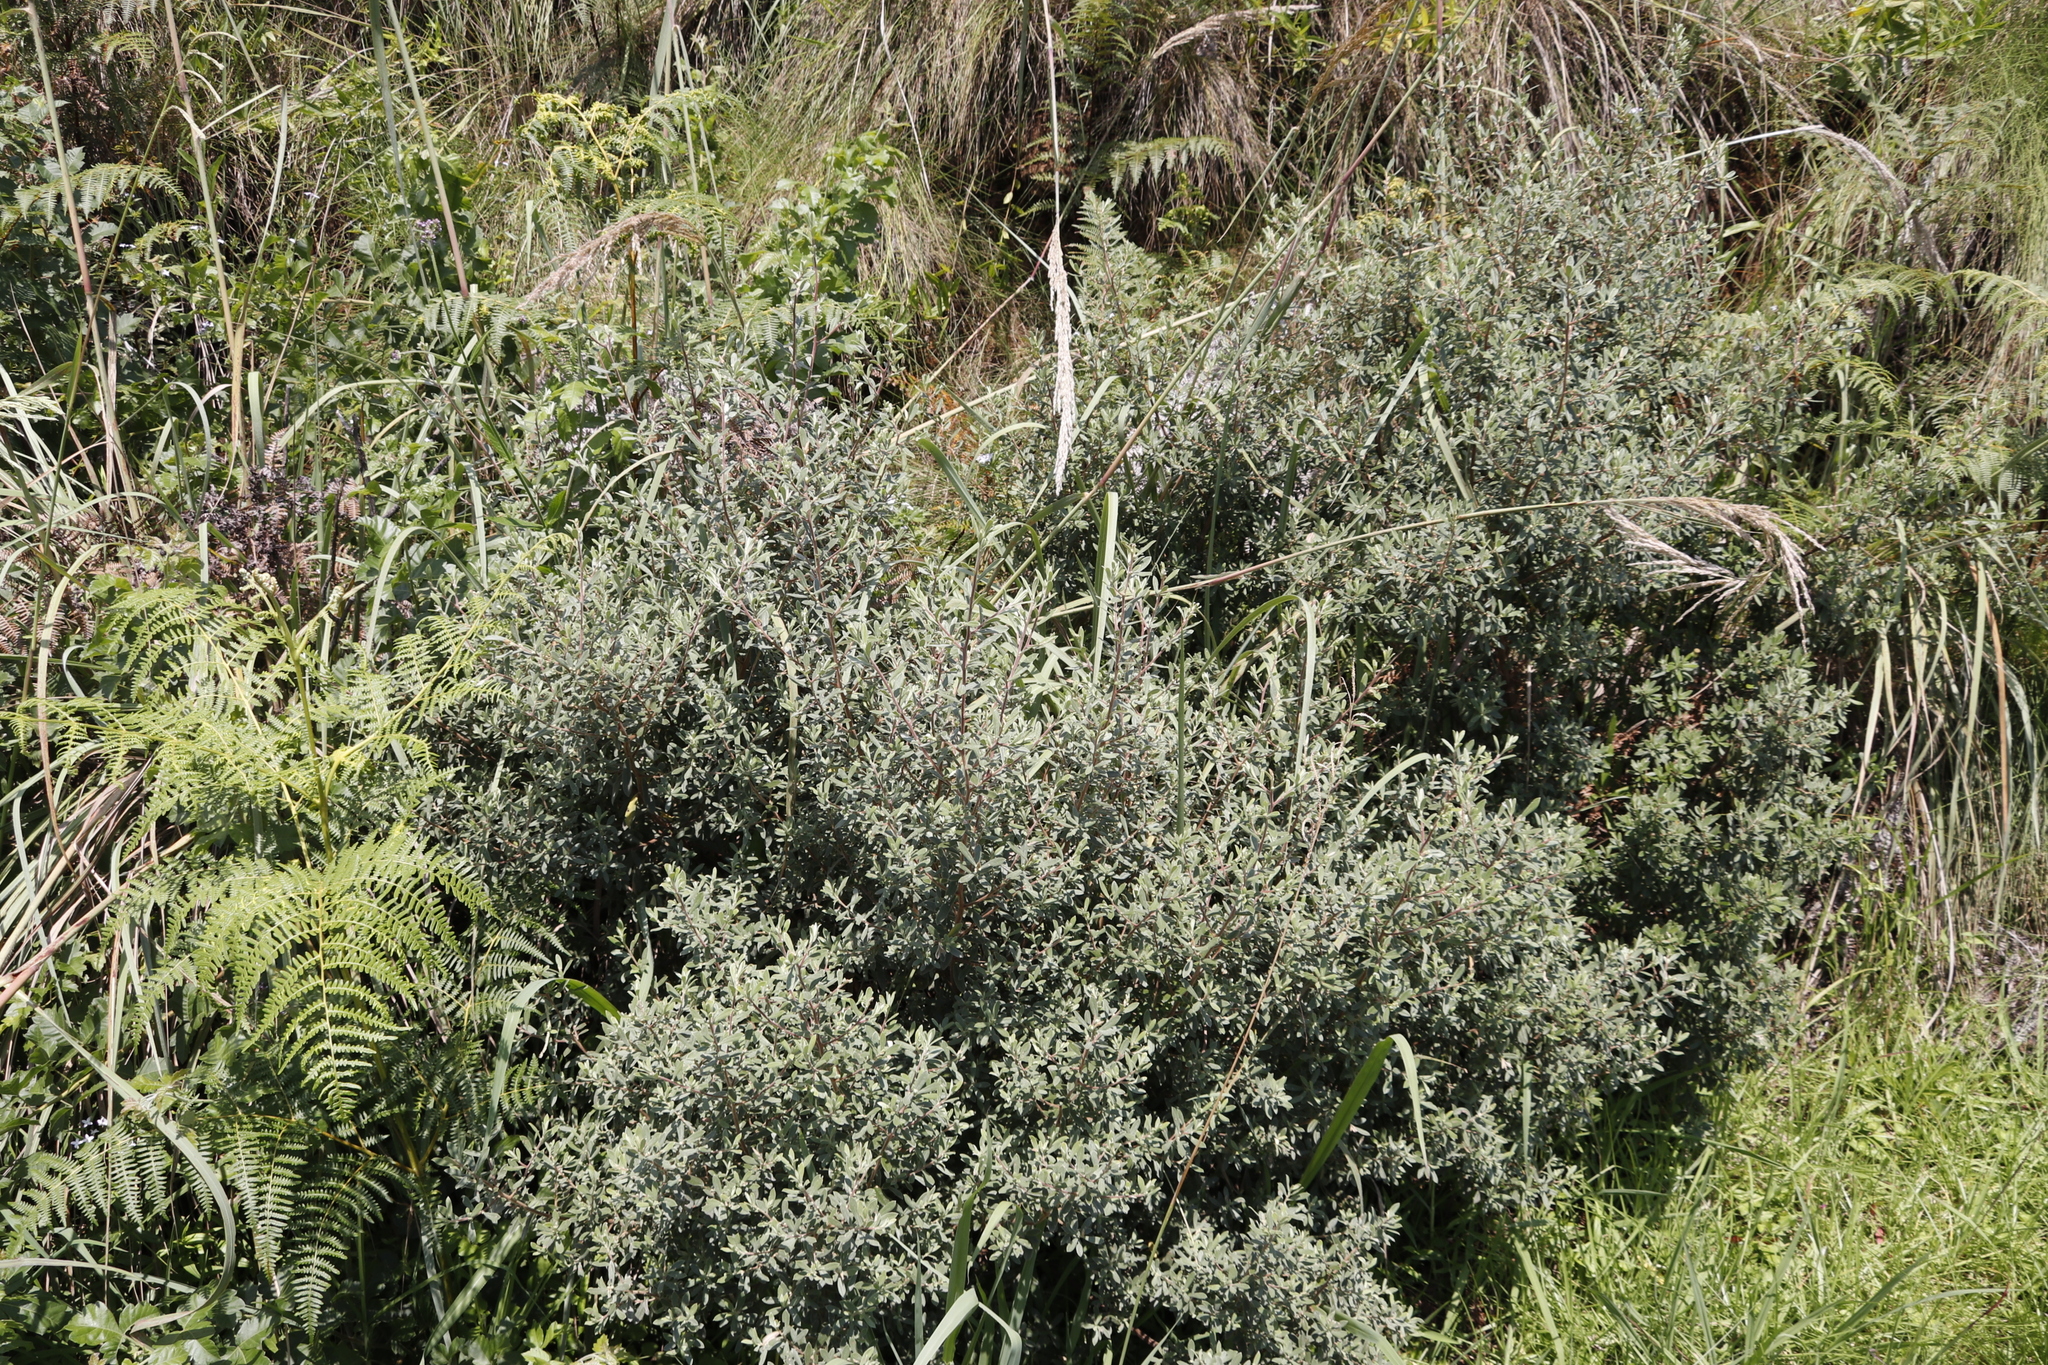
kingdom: Plantae
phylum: Tracheophyta
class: Magnoliopsida
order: Ericales
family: Ebenaceae
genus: Diospyros
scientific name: Diospyros pubescens
